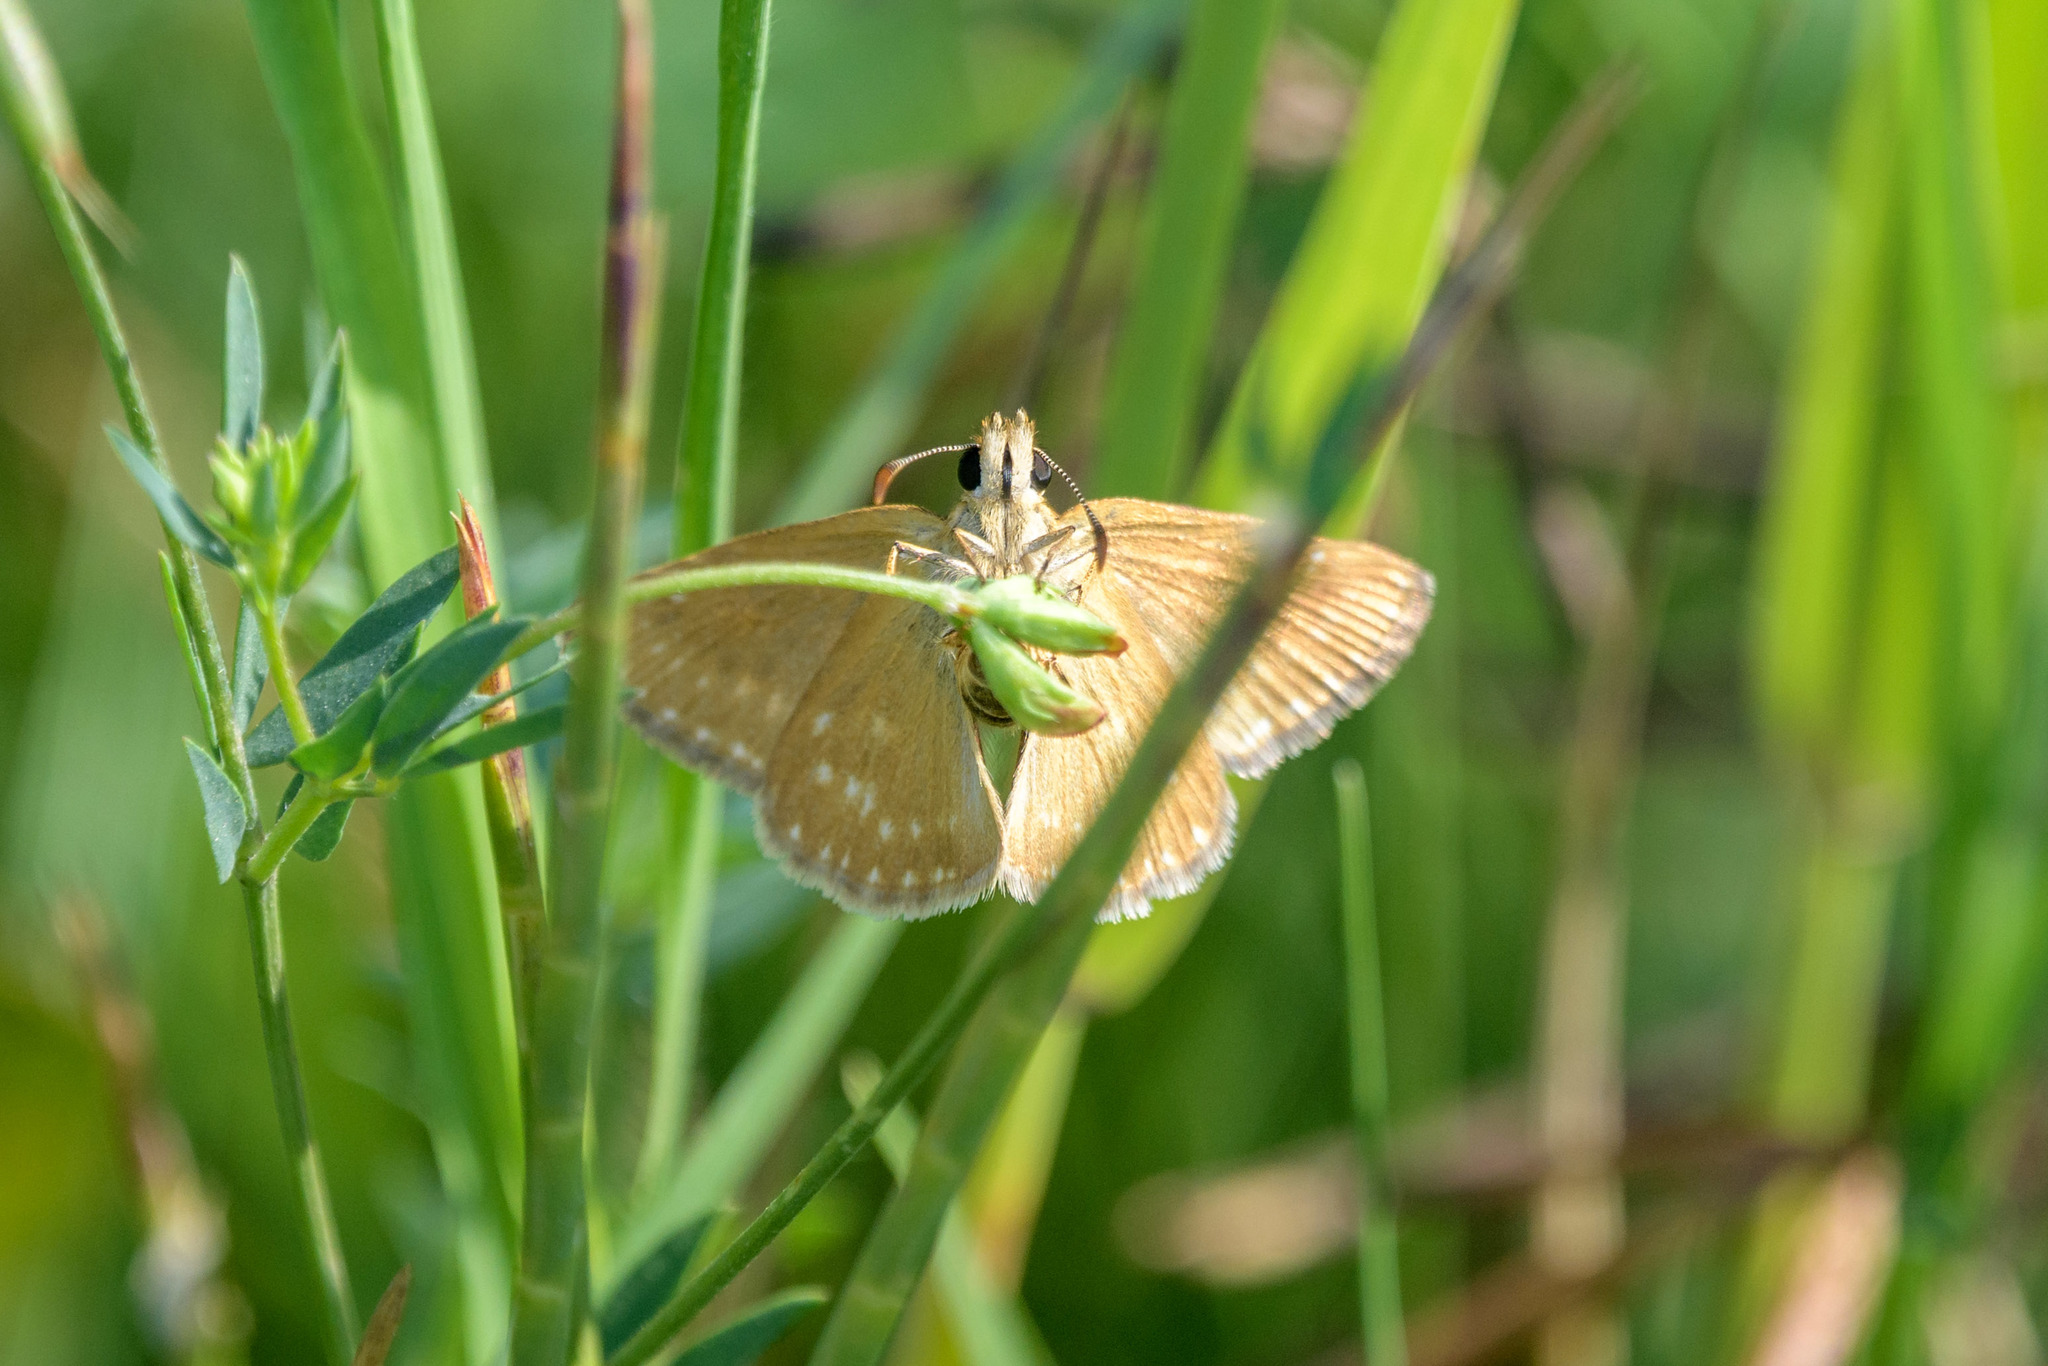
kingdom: Animalia
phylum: Arthropoda
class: Insecta
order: Lepidoptera
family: Hesperiidae
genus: Erynnis
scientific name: Erynnis tages
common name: Dingy skipper
